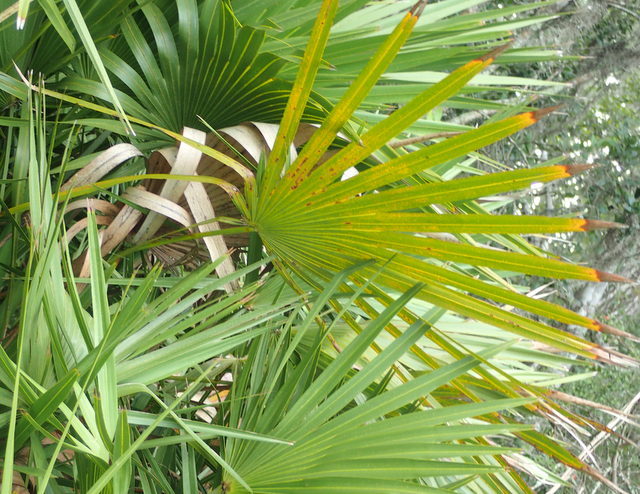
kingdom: Plantae
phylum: Tracheophyta
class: Liliopsida
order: Arecales
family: Arecaceae
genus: Serenoa
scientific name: Serenoa repens
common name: Saw-palmetto
